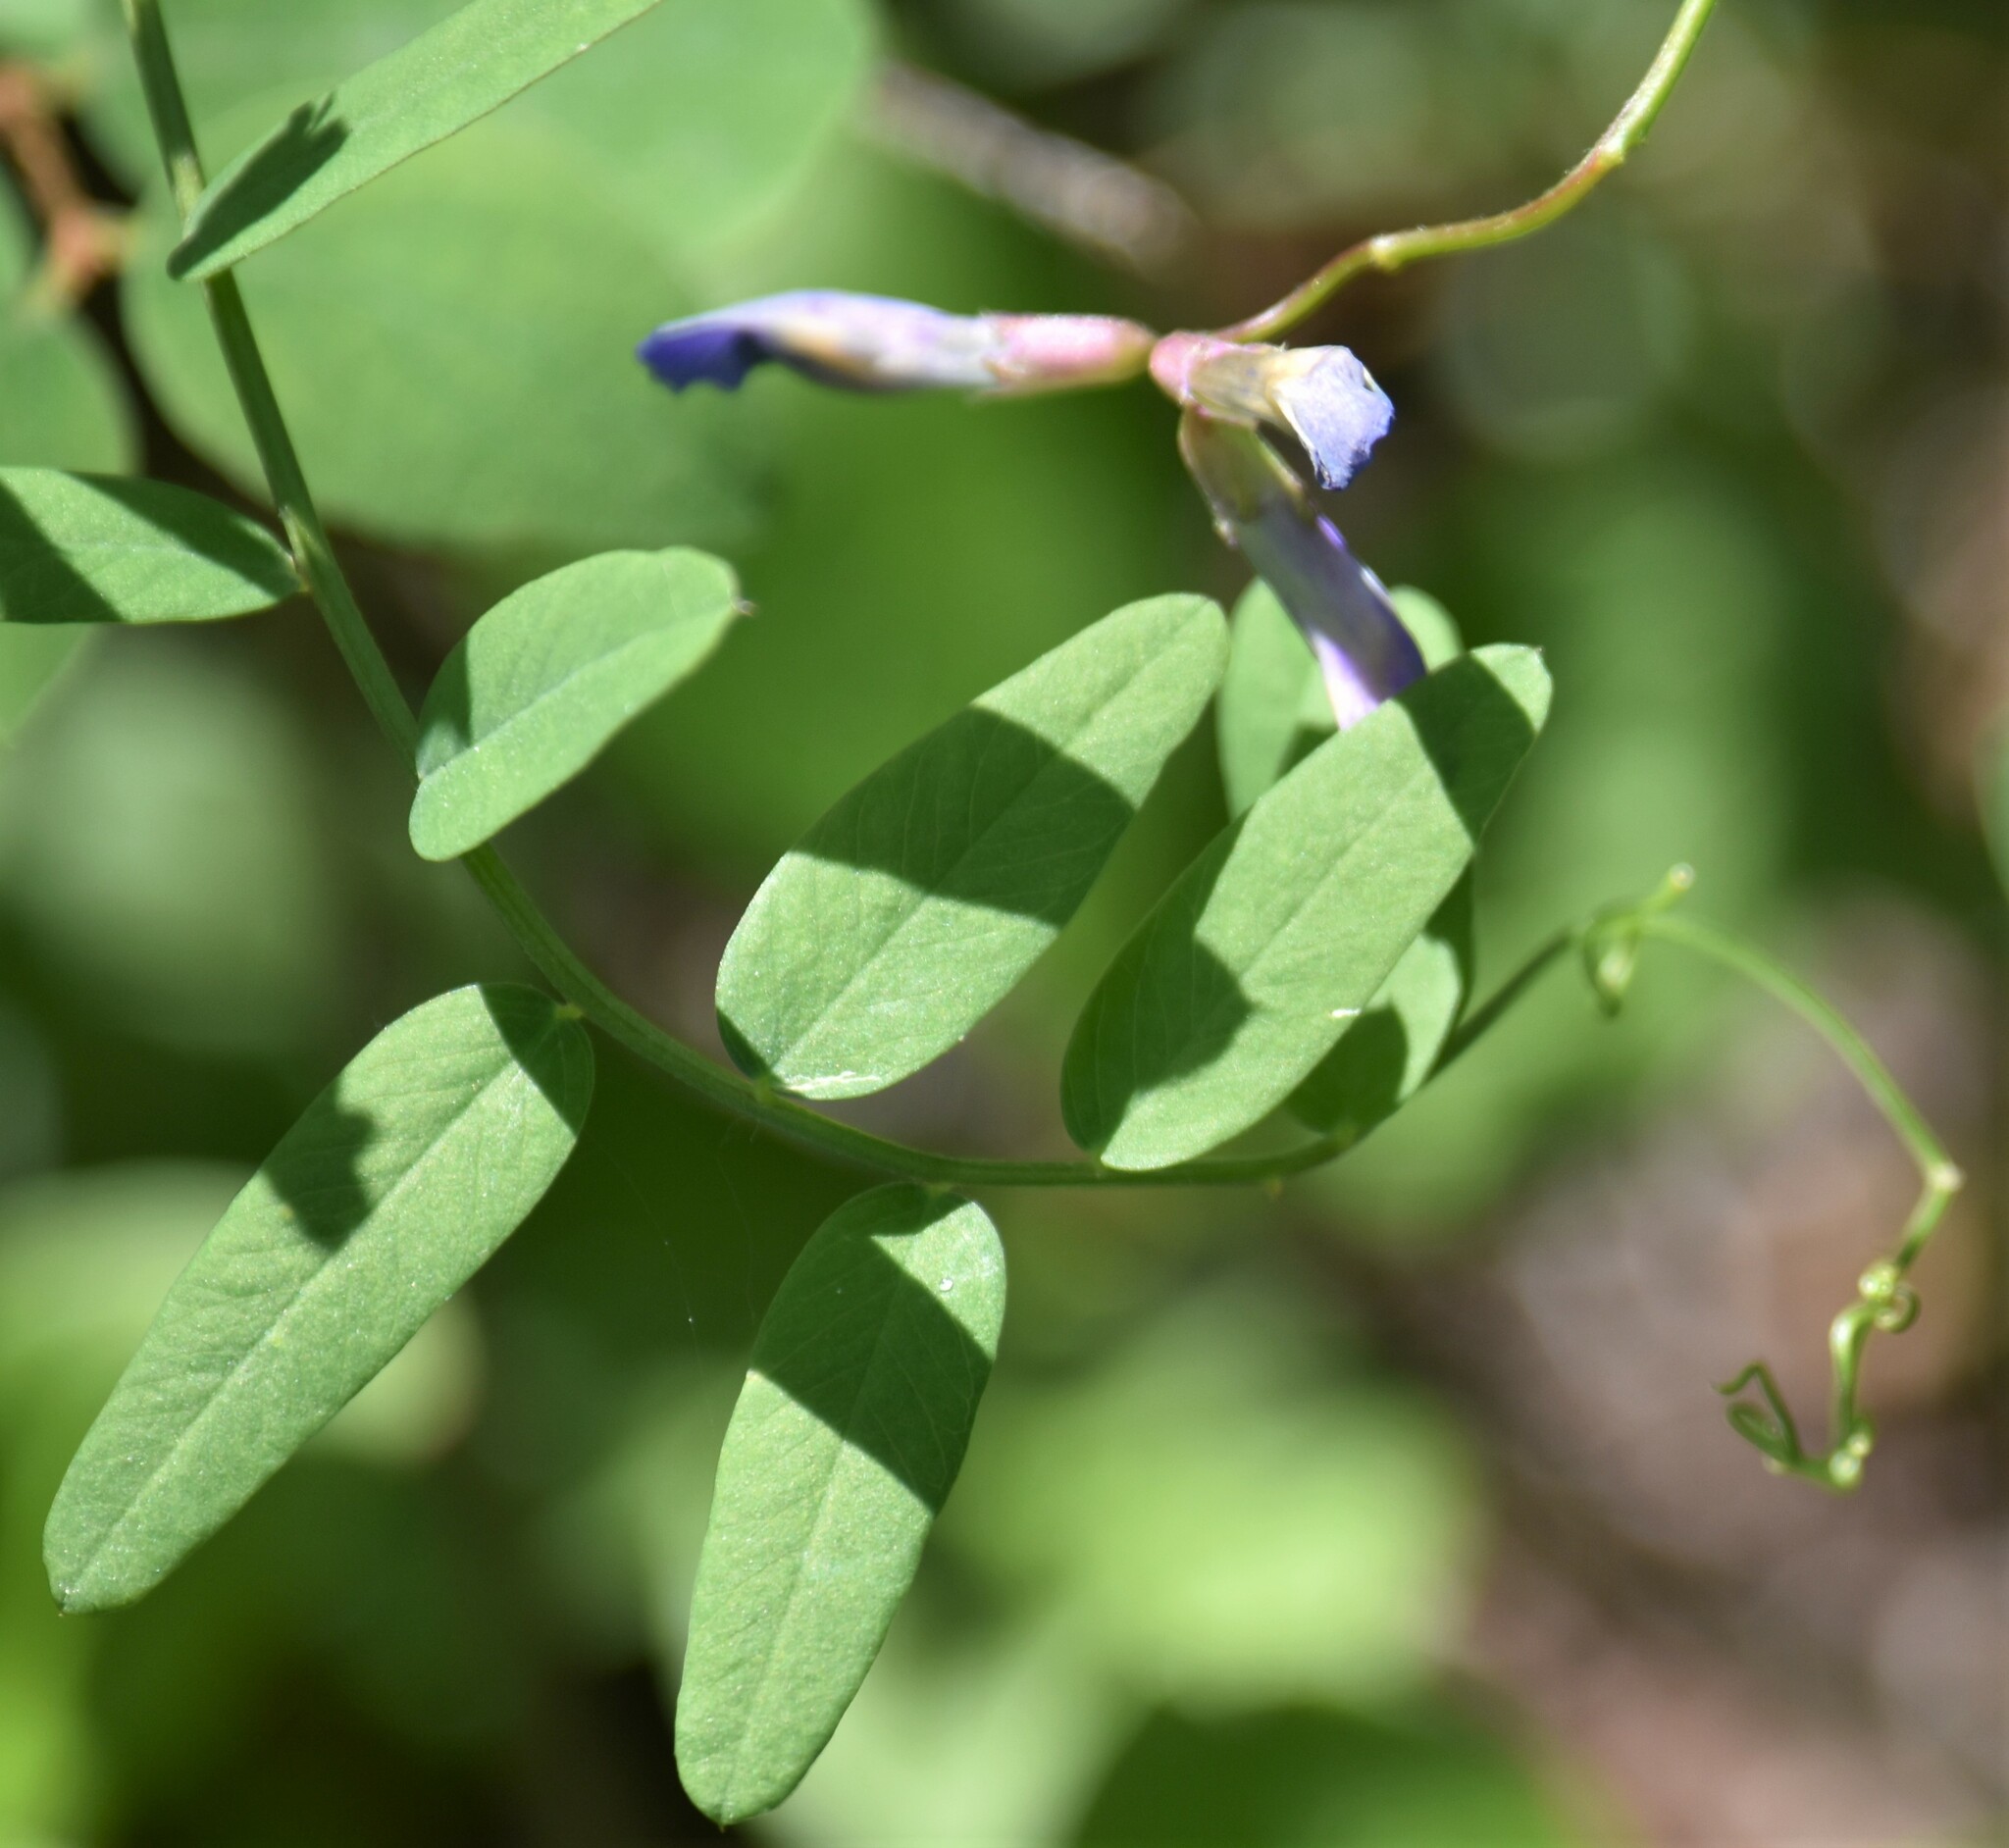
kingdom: Plantae
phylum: Tracheophyta
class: Magnoliopsida
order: Fabales
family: Fabaceae
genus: Vicia
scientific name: Vicia americana
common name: American vetch
